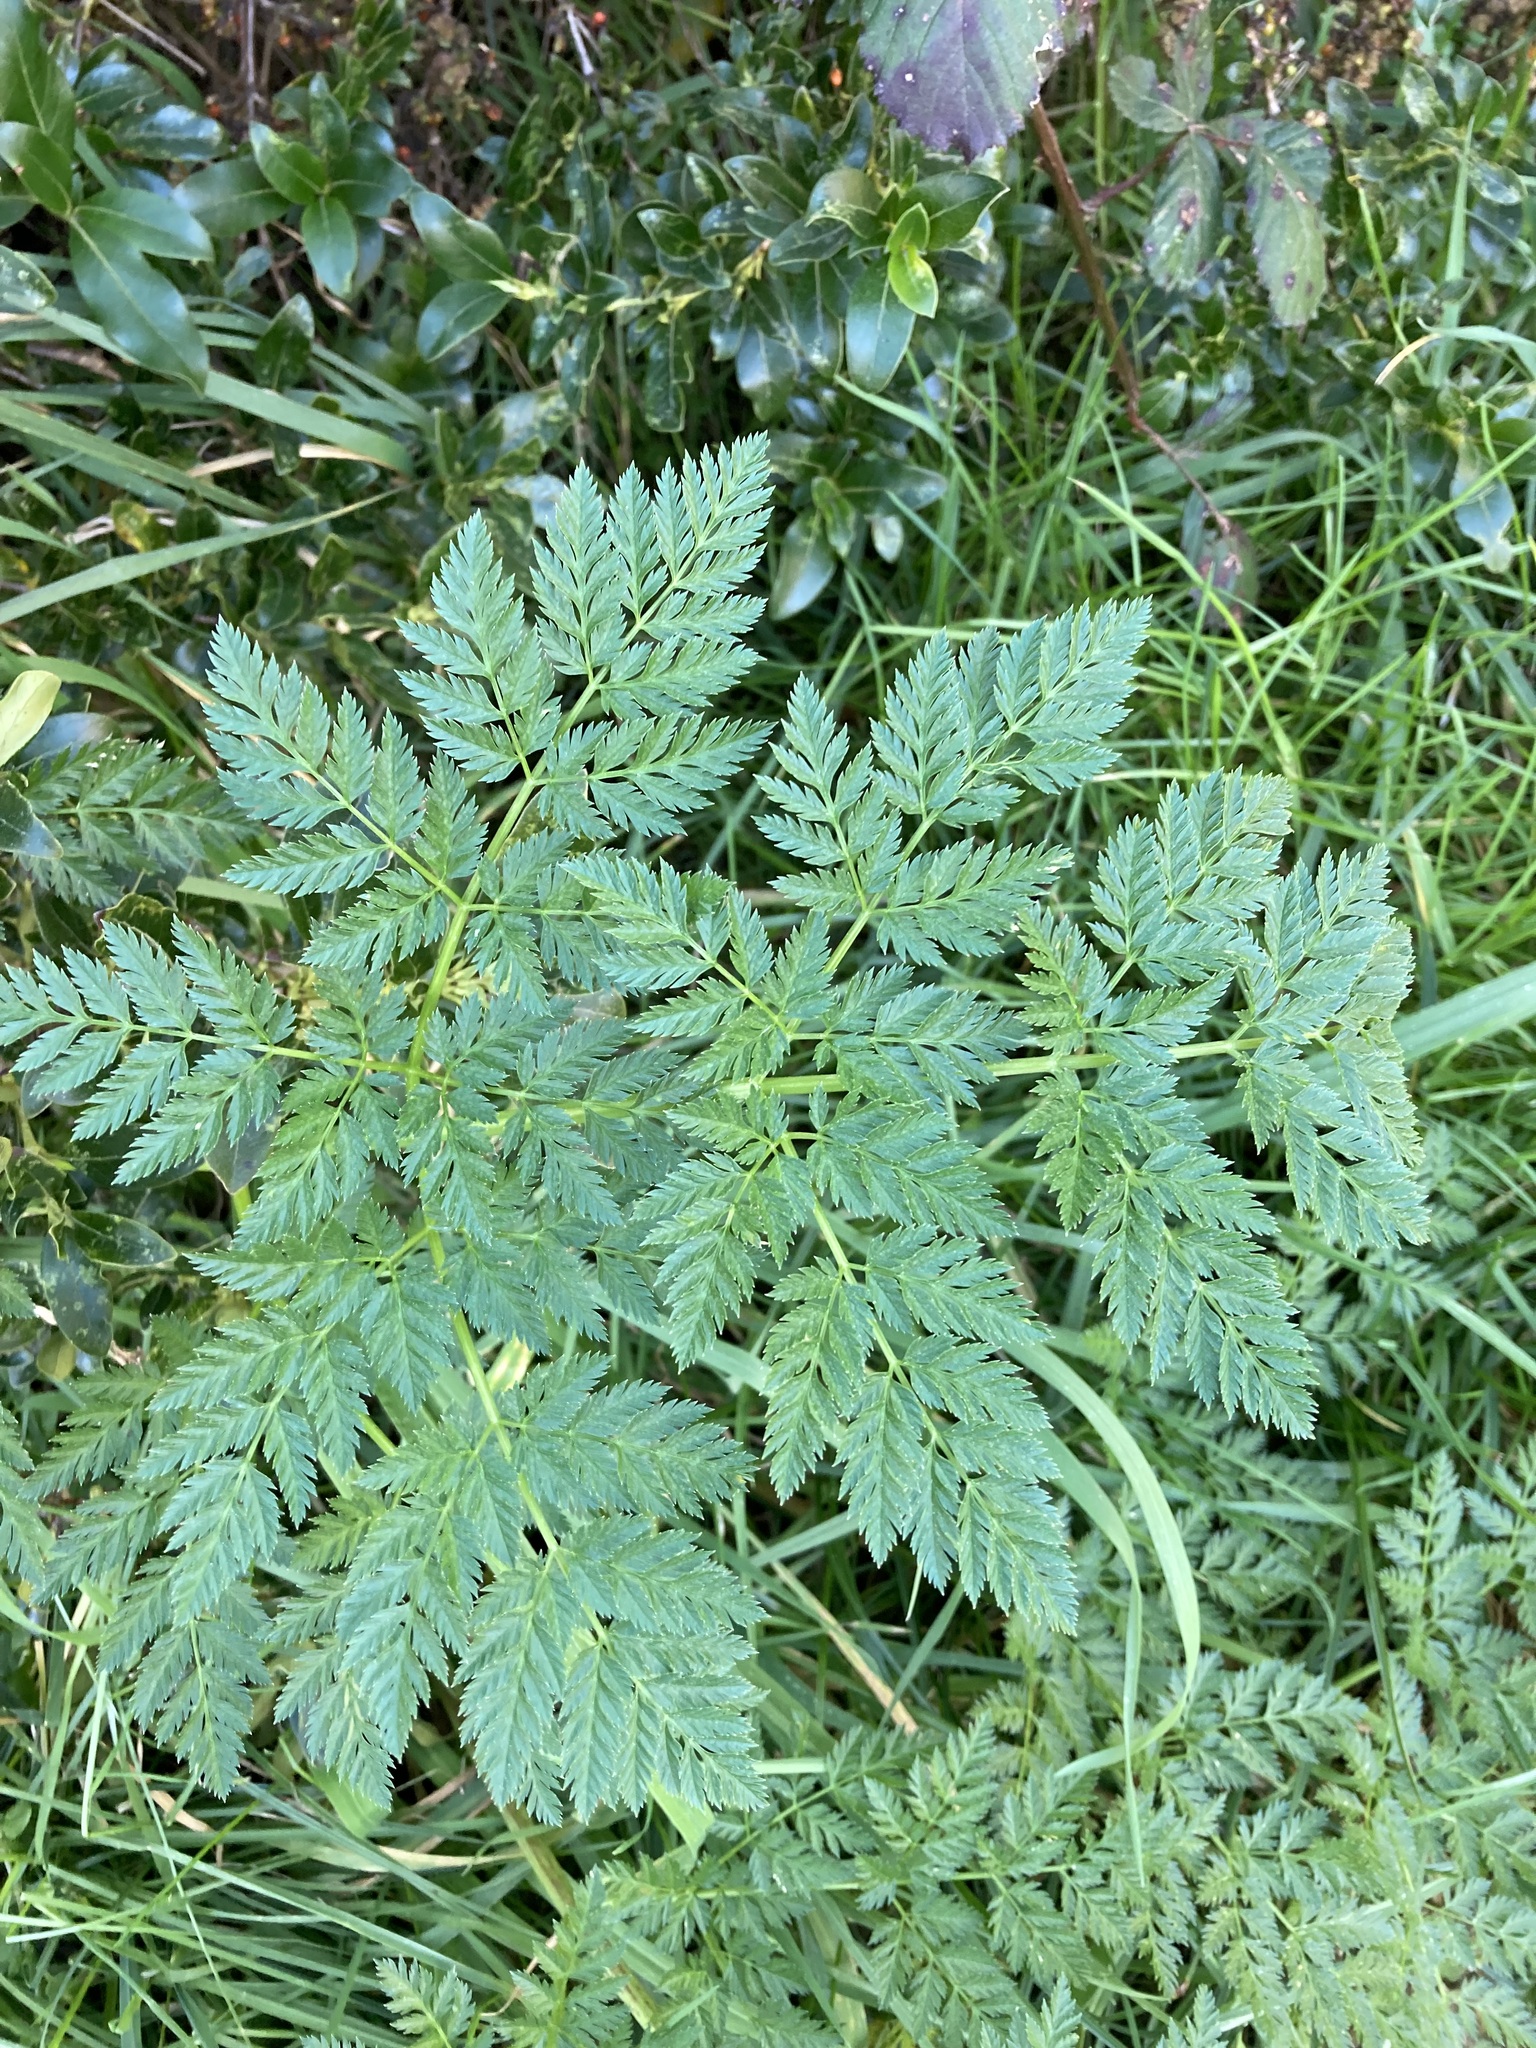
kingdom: Plantae
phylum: Tracheophyta
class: Magnoliopsida
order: Apiales
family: Apiaceae
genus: Conium
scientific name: Conium maculatum
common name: Hemlock
